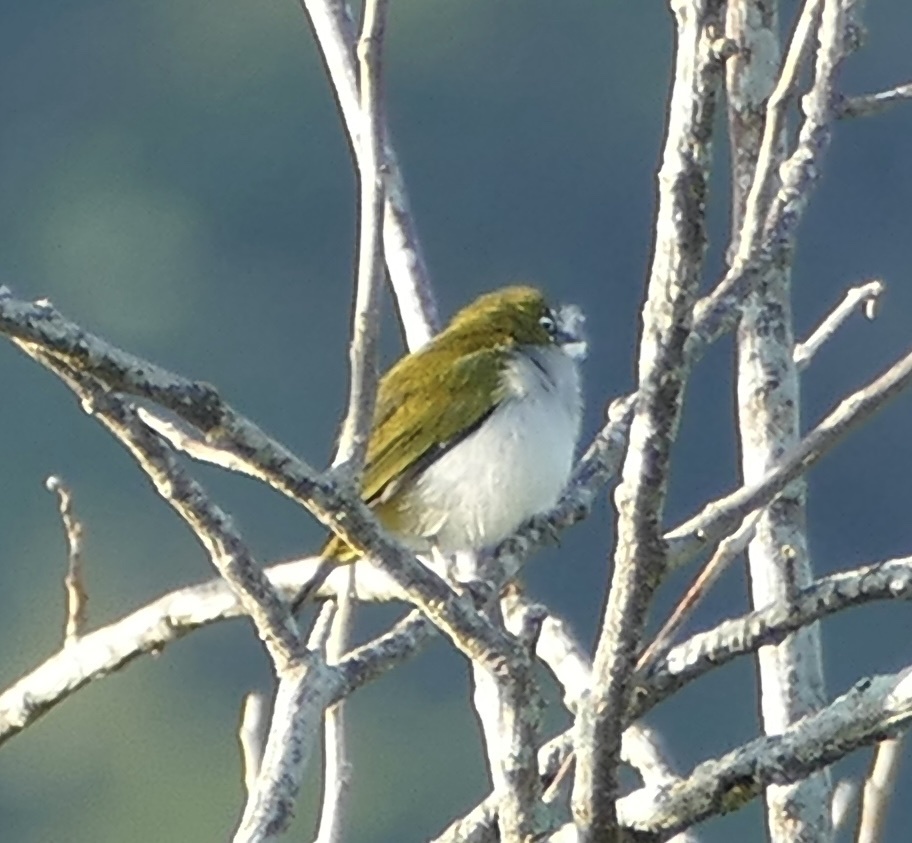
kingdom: Animalia
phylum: Chordata
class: Aves
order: Passeriformes
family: Zosteropidae
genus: Zosterops
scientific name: Zosterops atrifrons
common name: Black-crowned white-eye
